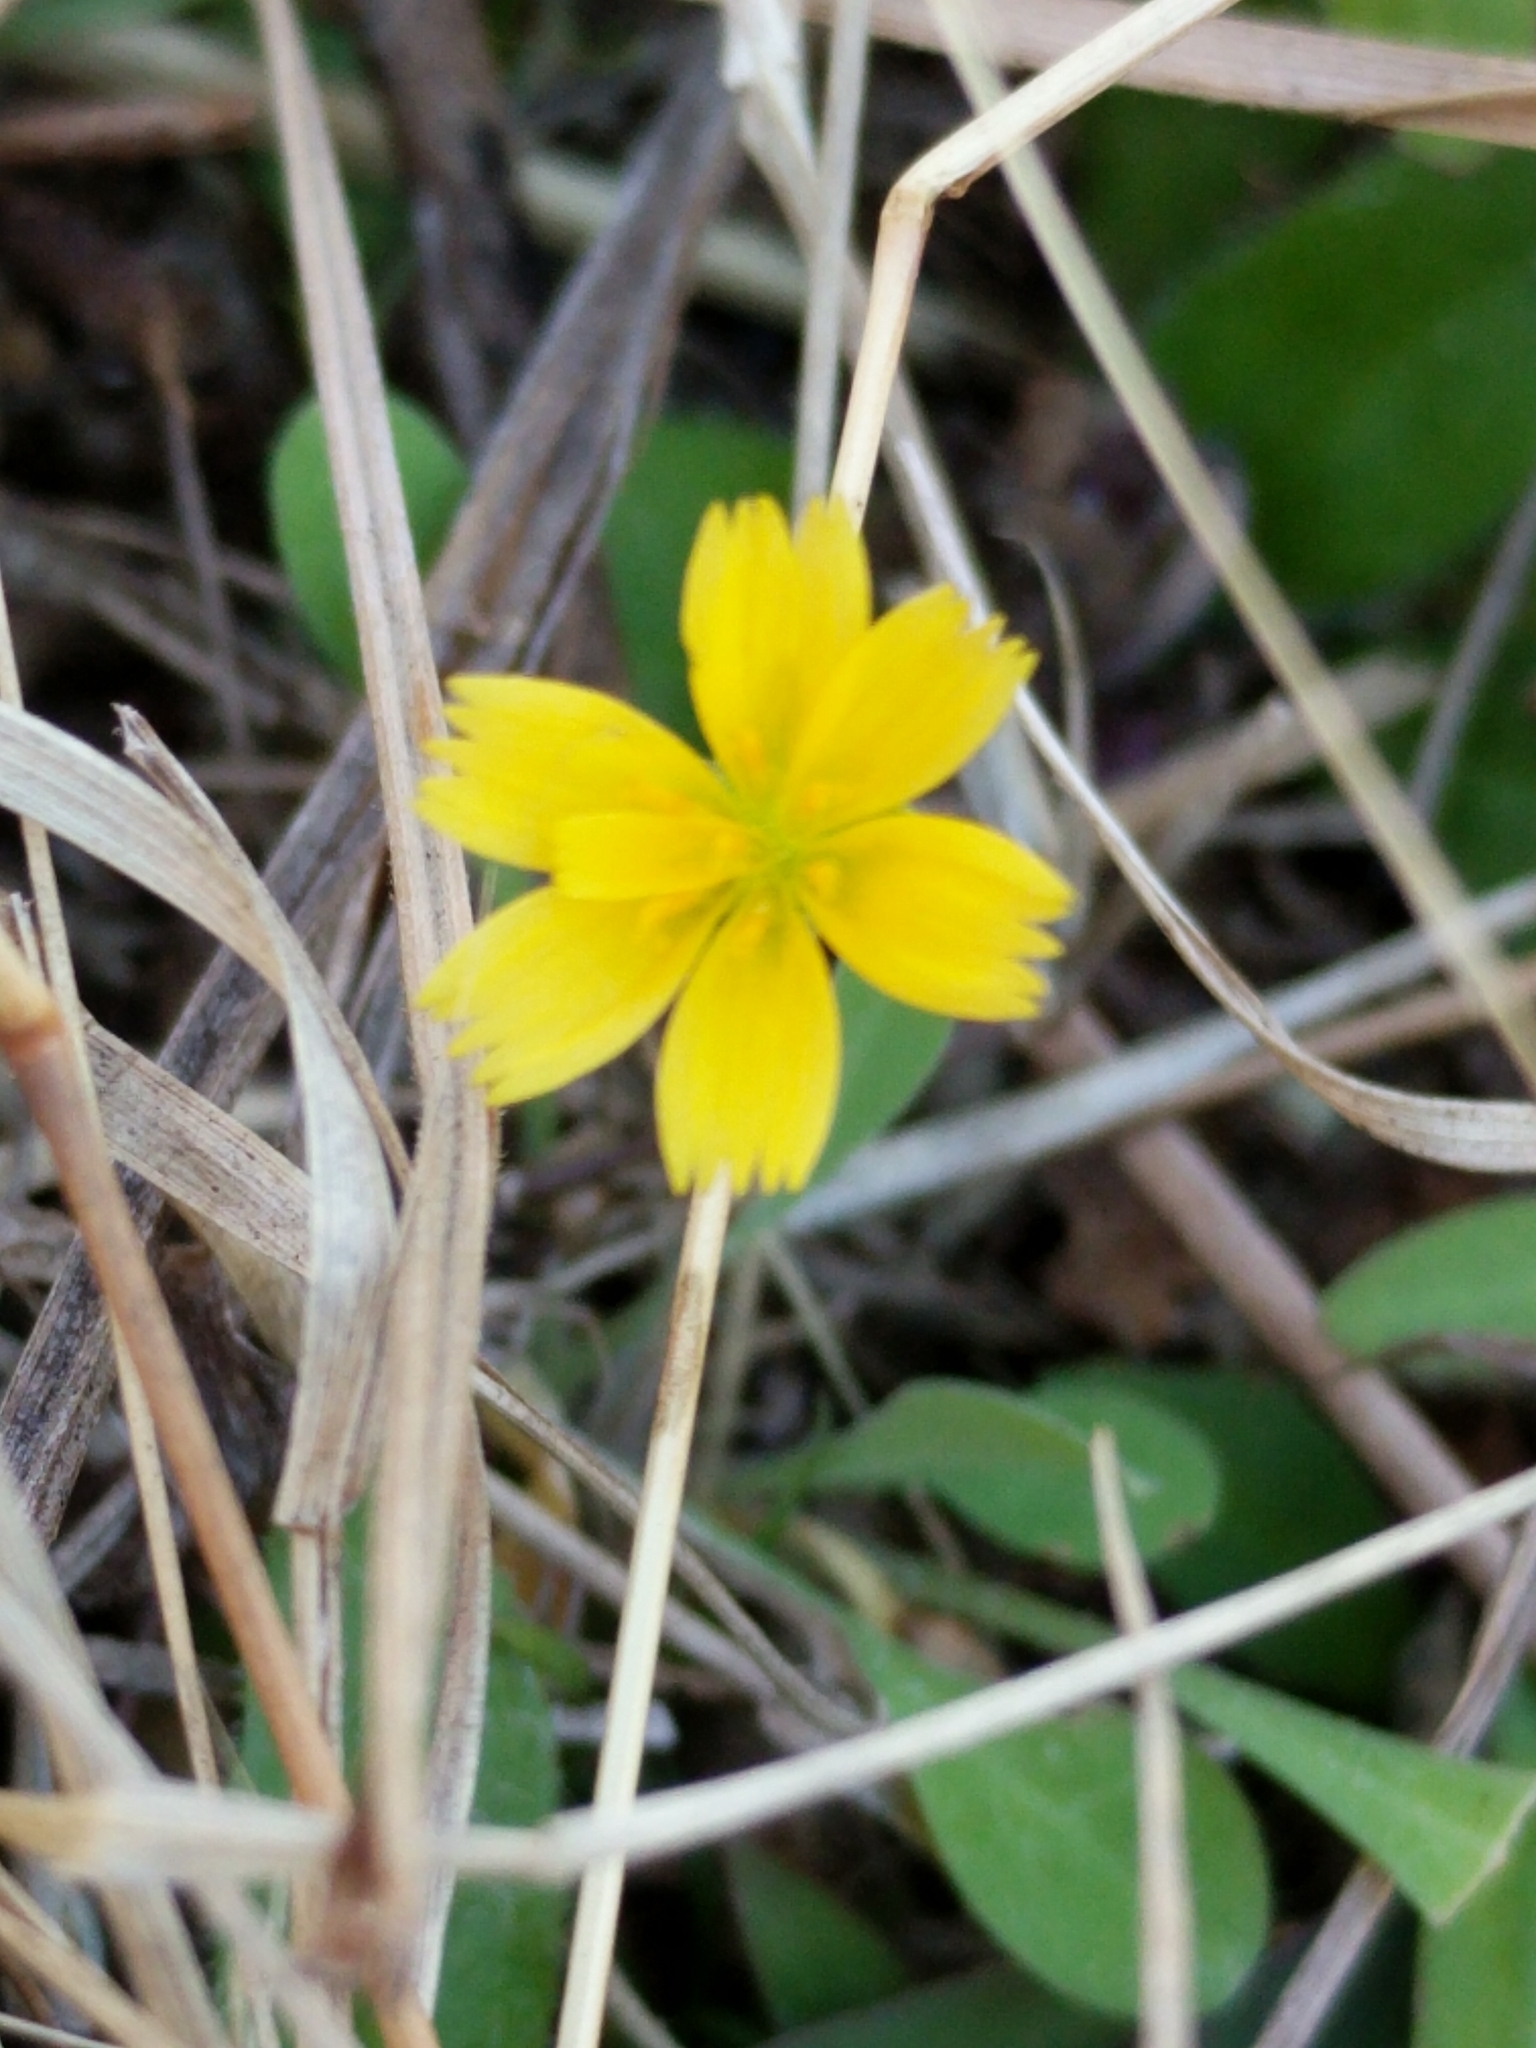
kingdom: Plantae
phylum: Tracheophyta
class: Magnoliopsida
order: Asterales
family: Asteraceae
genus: Krigia
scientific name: Krigia occidentalis
